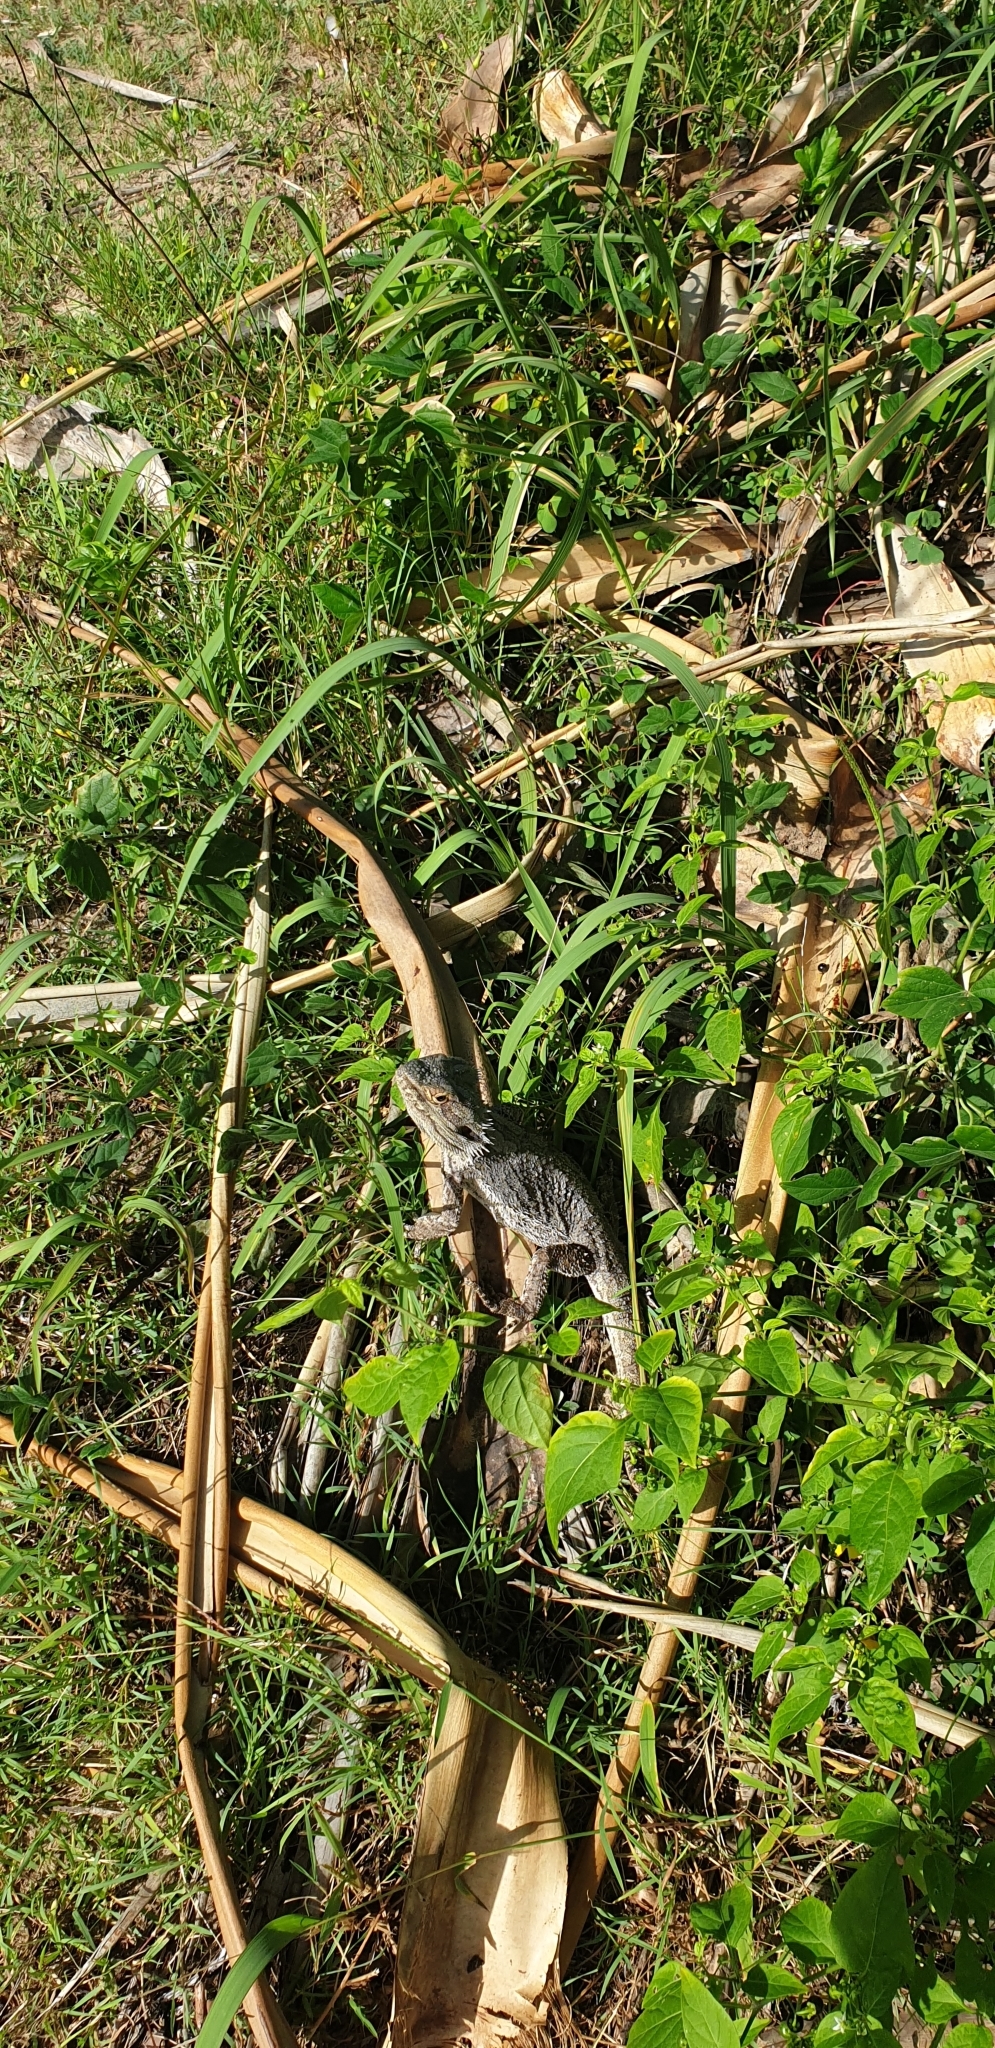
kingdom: Animalia
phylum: Chordata
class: Squamata
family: Agamidae
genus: Pogona
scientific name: Pogona barbata
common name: Bearded dragon
